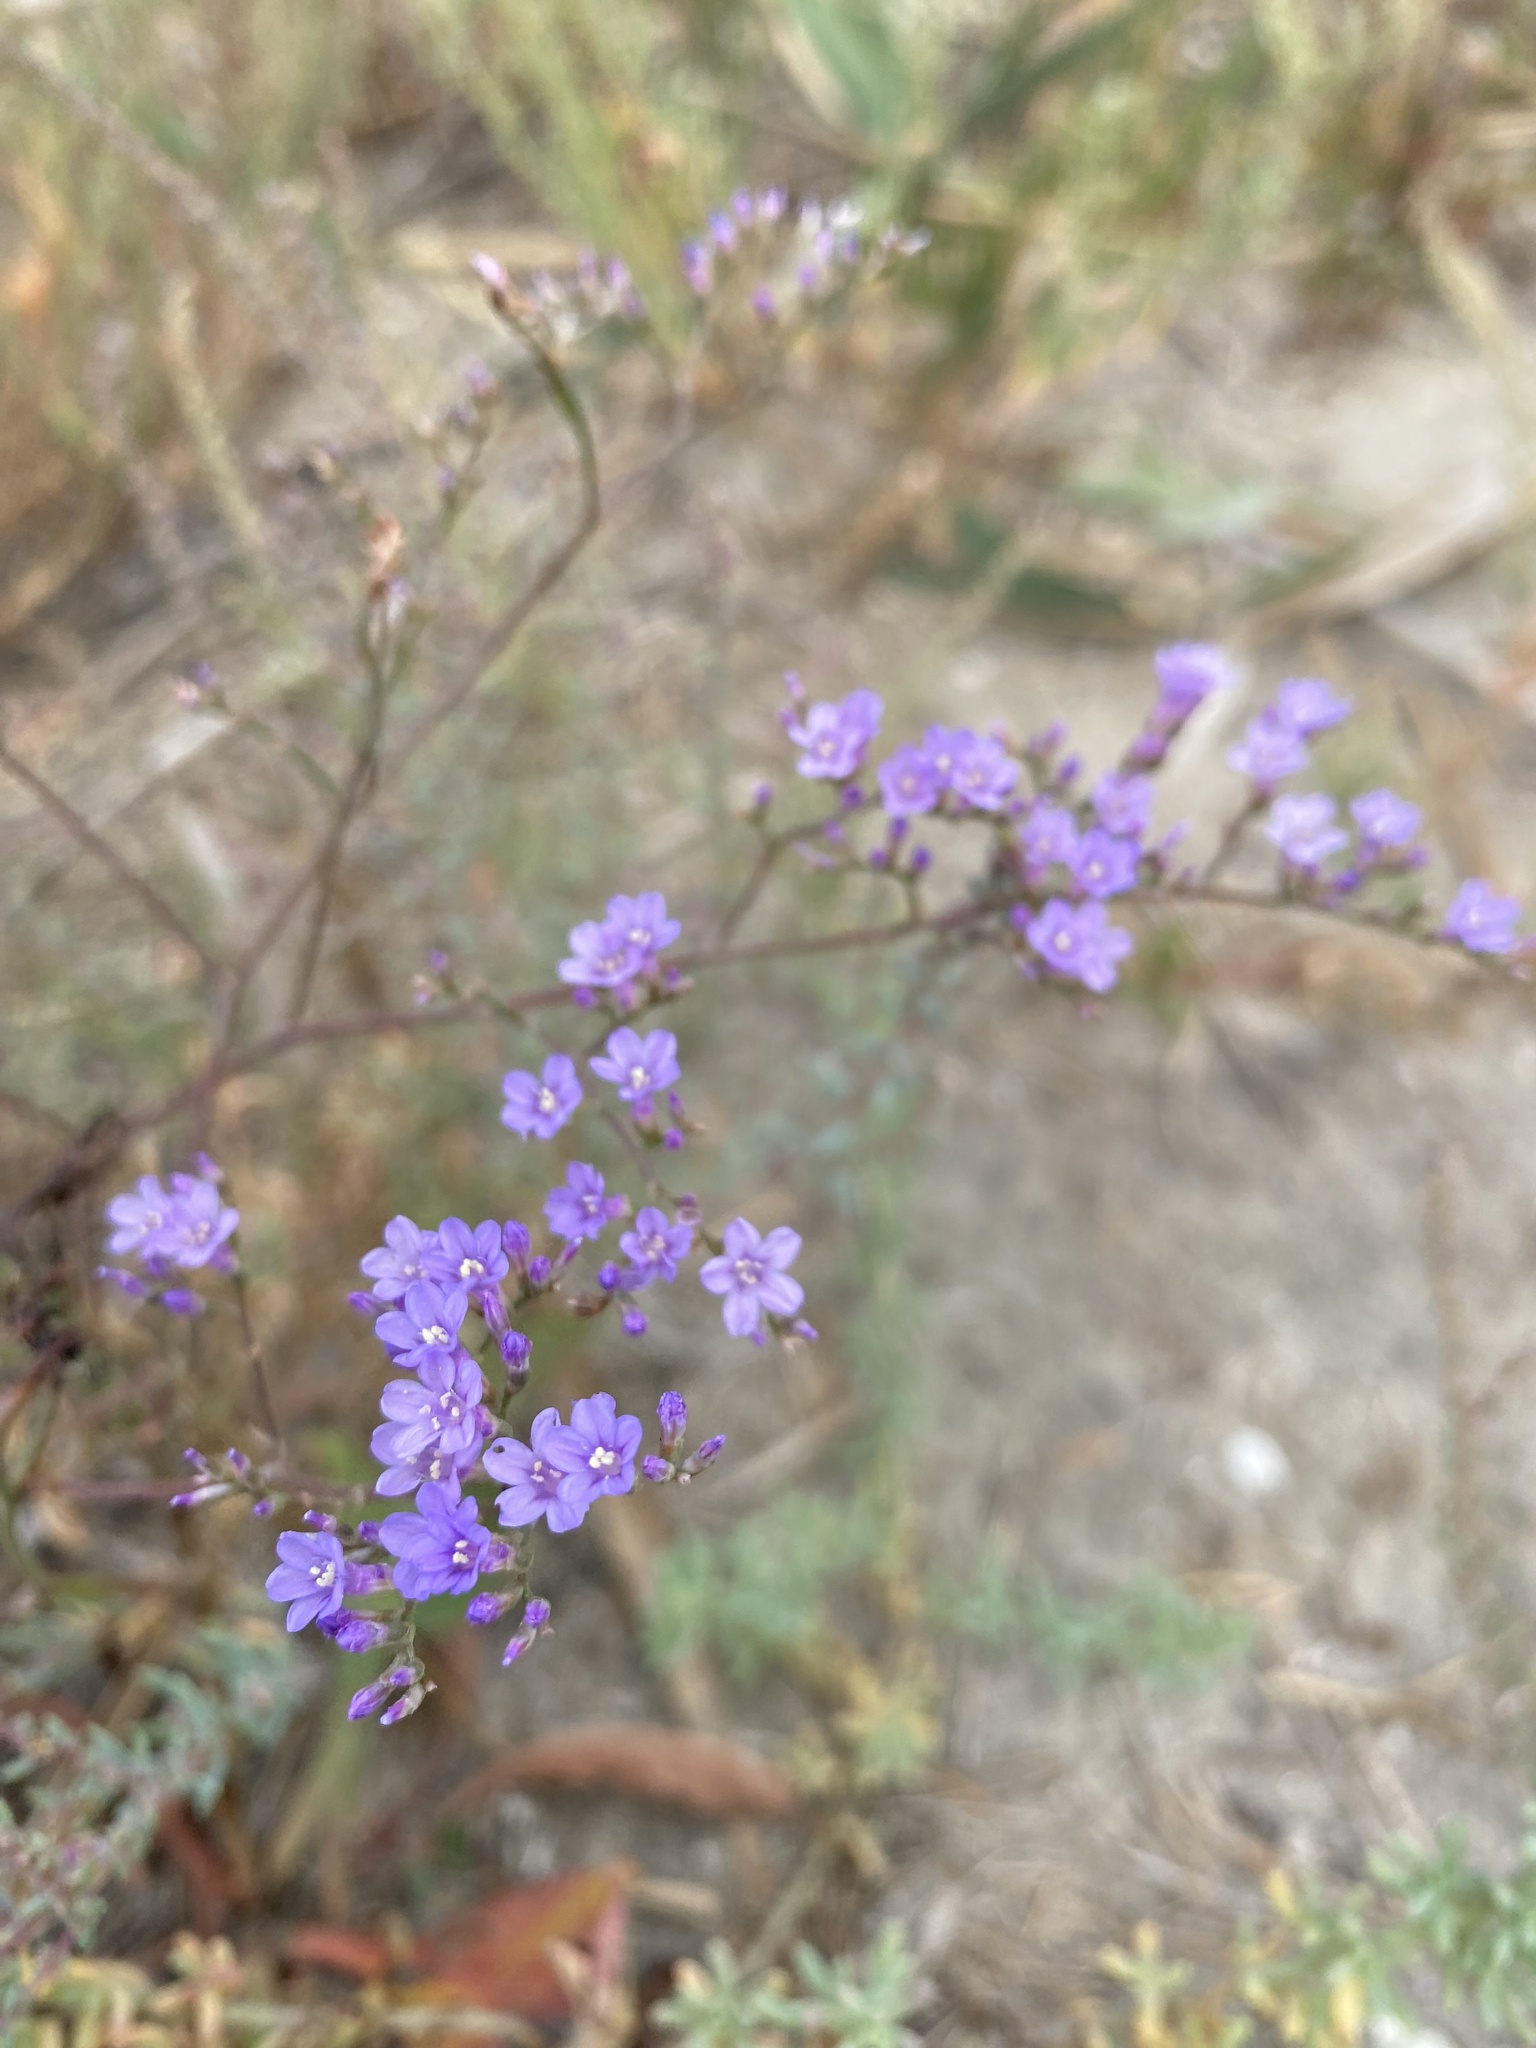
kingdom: Plantae
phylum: Tracheophyta
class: Magnoliopsida
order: Caryophyllales
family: Plumbaginaceae
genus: Limonium
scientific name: Limonium gmelini
